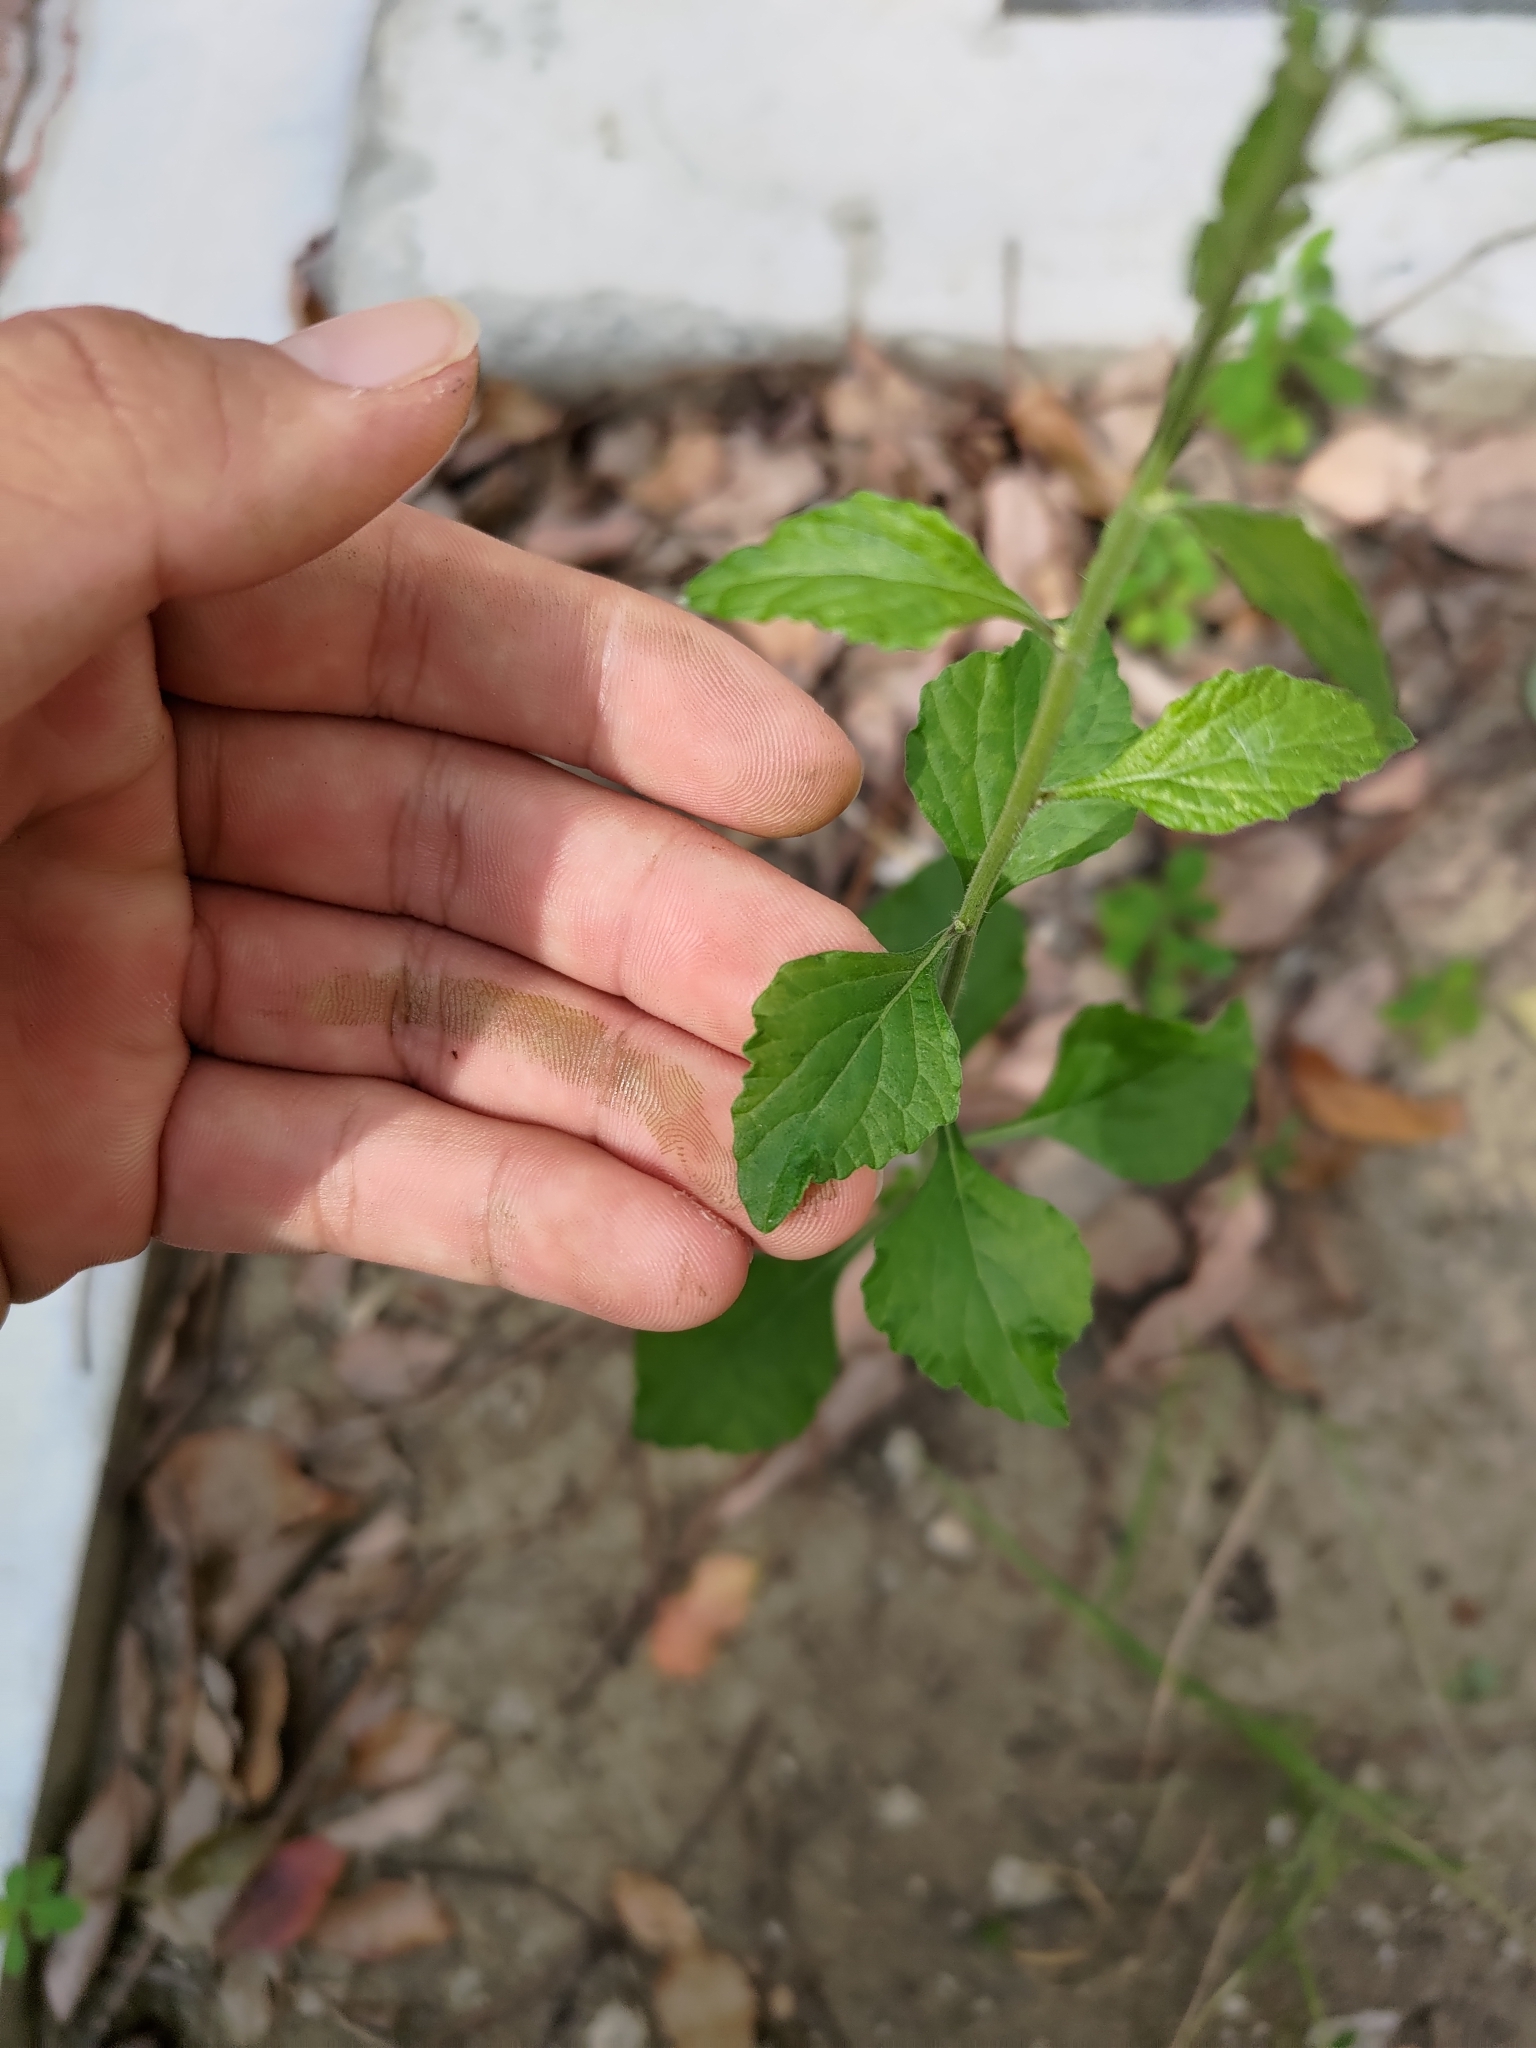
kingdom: Plantae
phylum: Tracheophyta
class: Magnoliopsida
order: Asterales
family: Asteraceae
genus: Cyanthillium
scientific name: Cyanthillium cinereum
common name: Little ironweed
